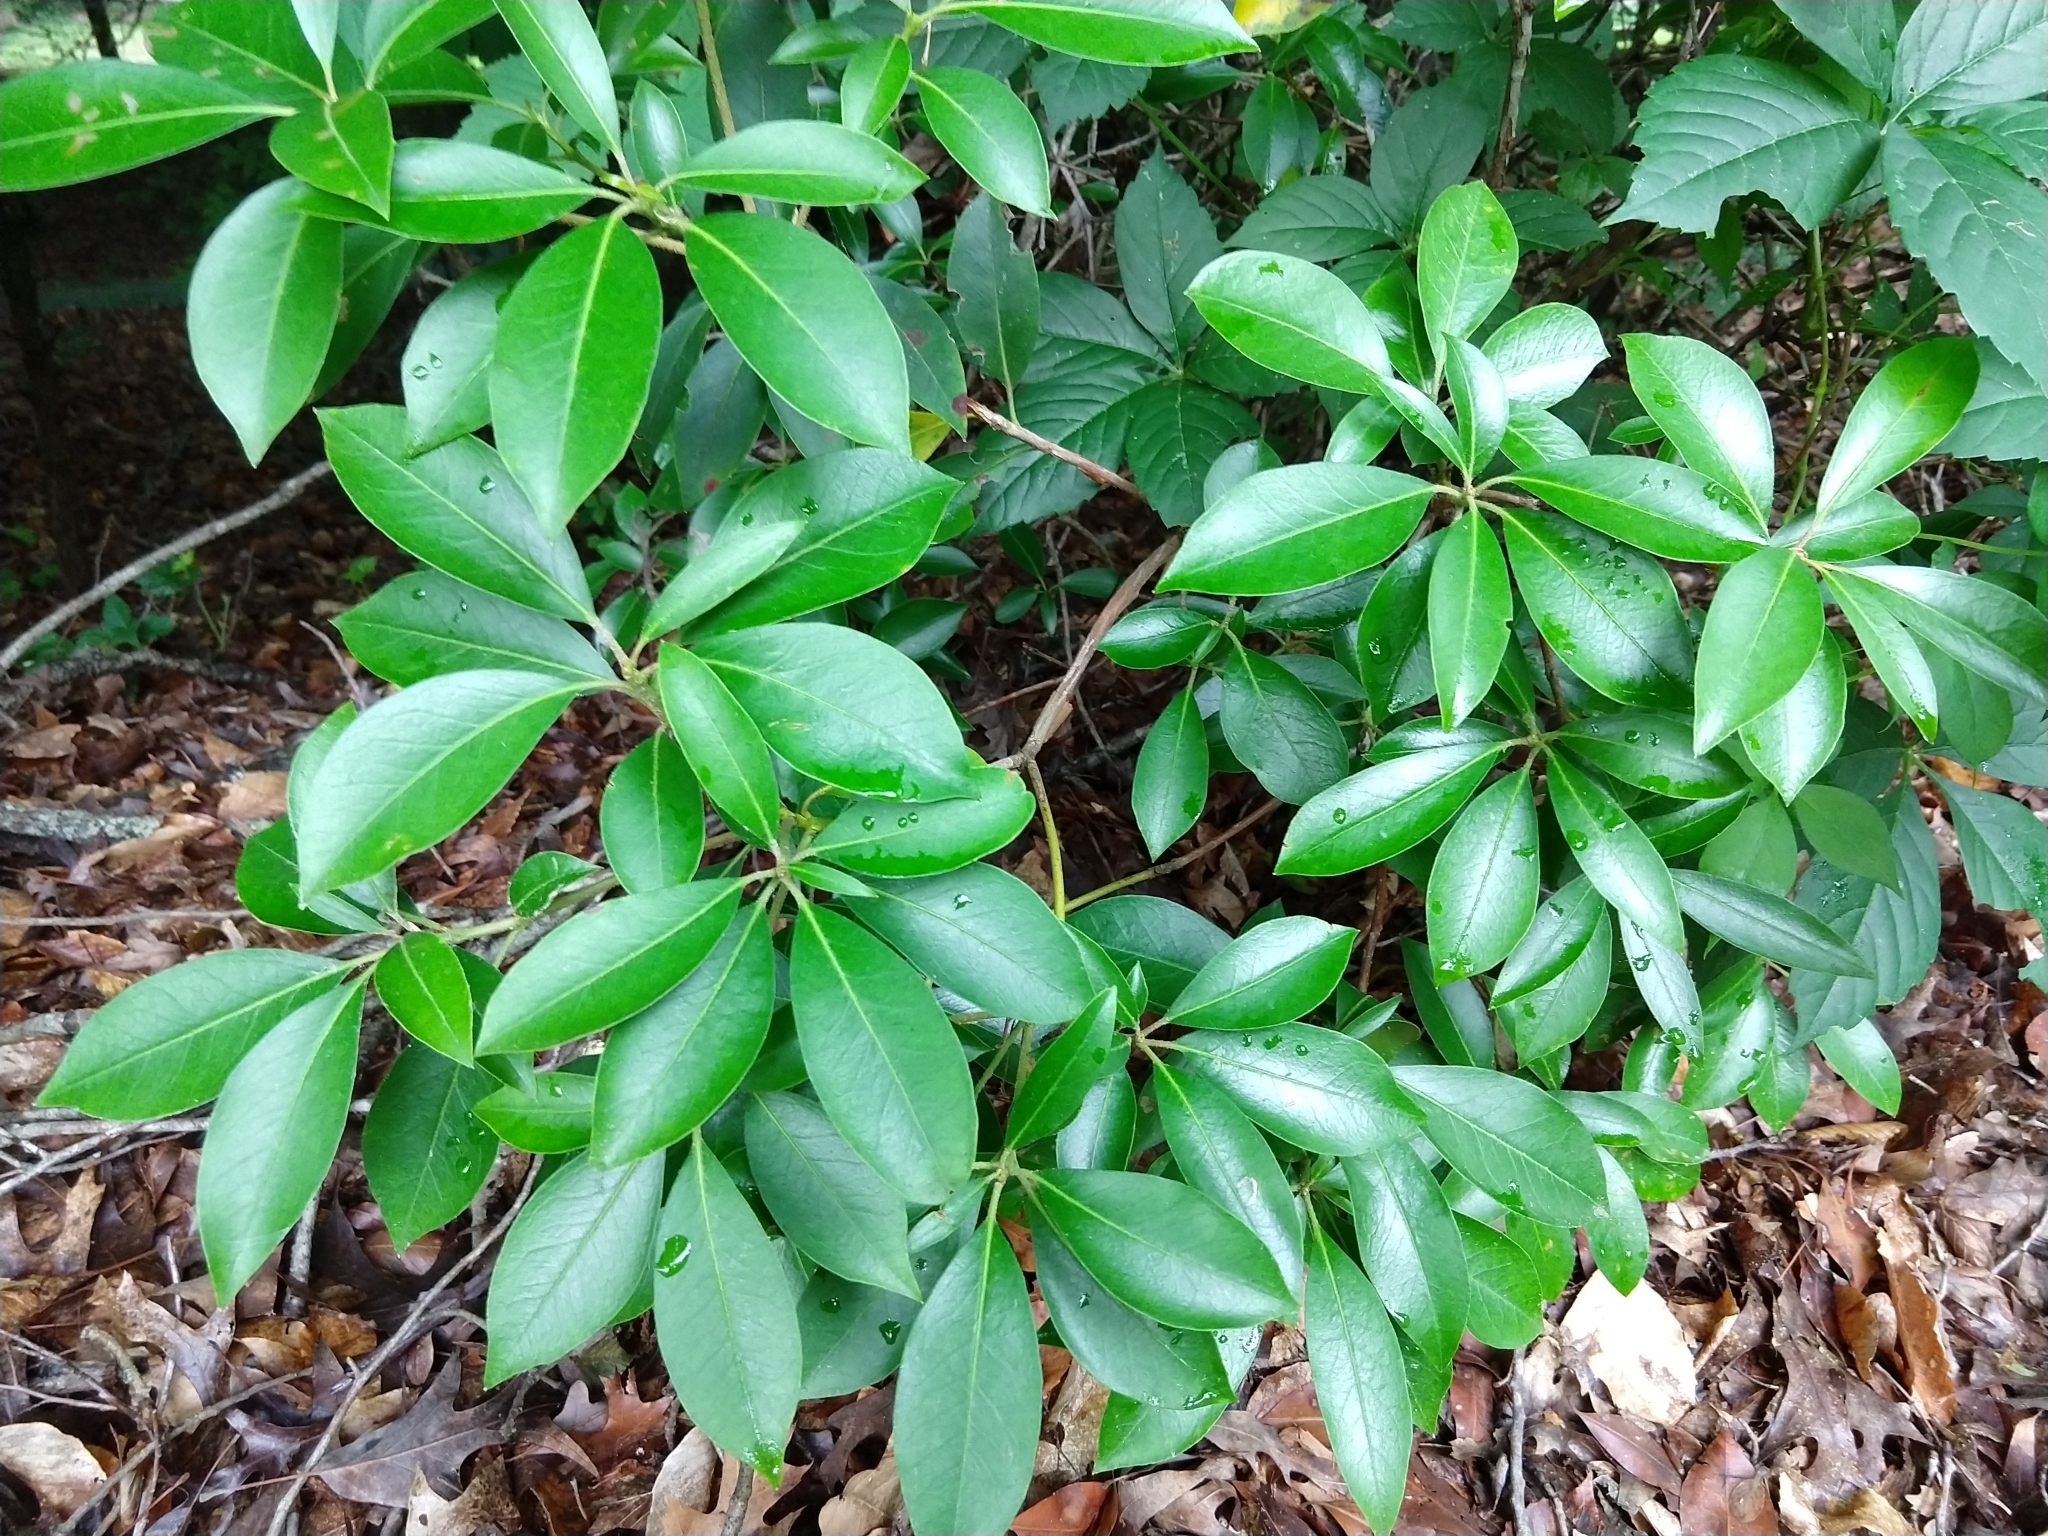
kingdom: Plantae
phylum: Tracheophyta
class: Magnoliopsida
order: Ericales
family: Ericaceae
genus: Kalmia
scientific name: Kalmia latifolia
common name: Mountain-laurel
